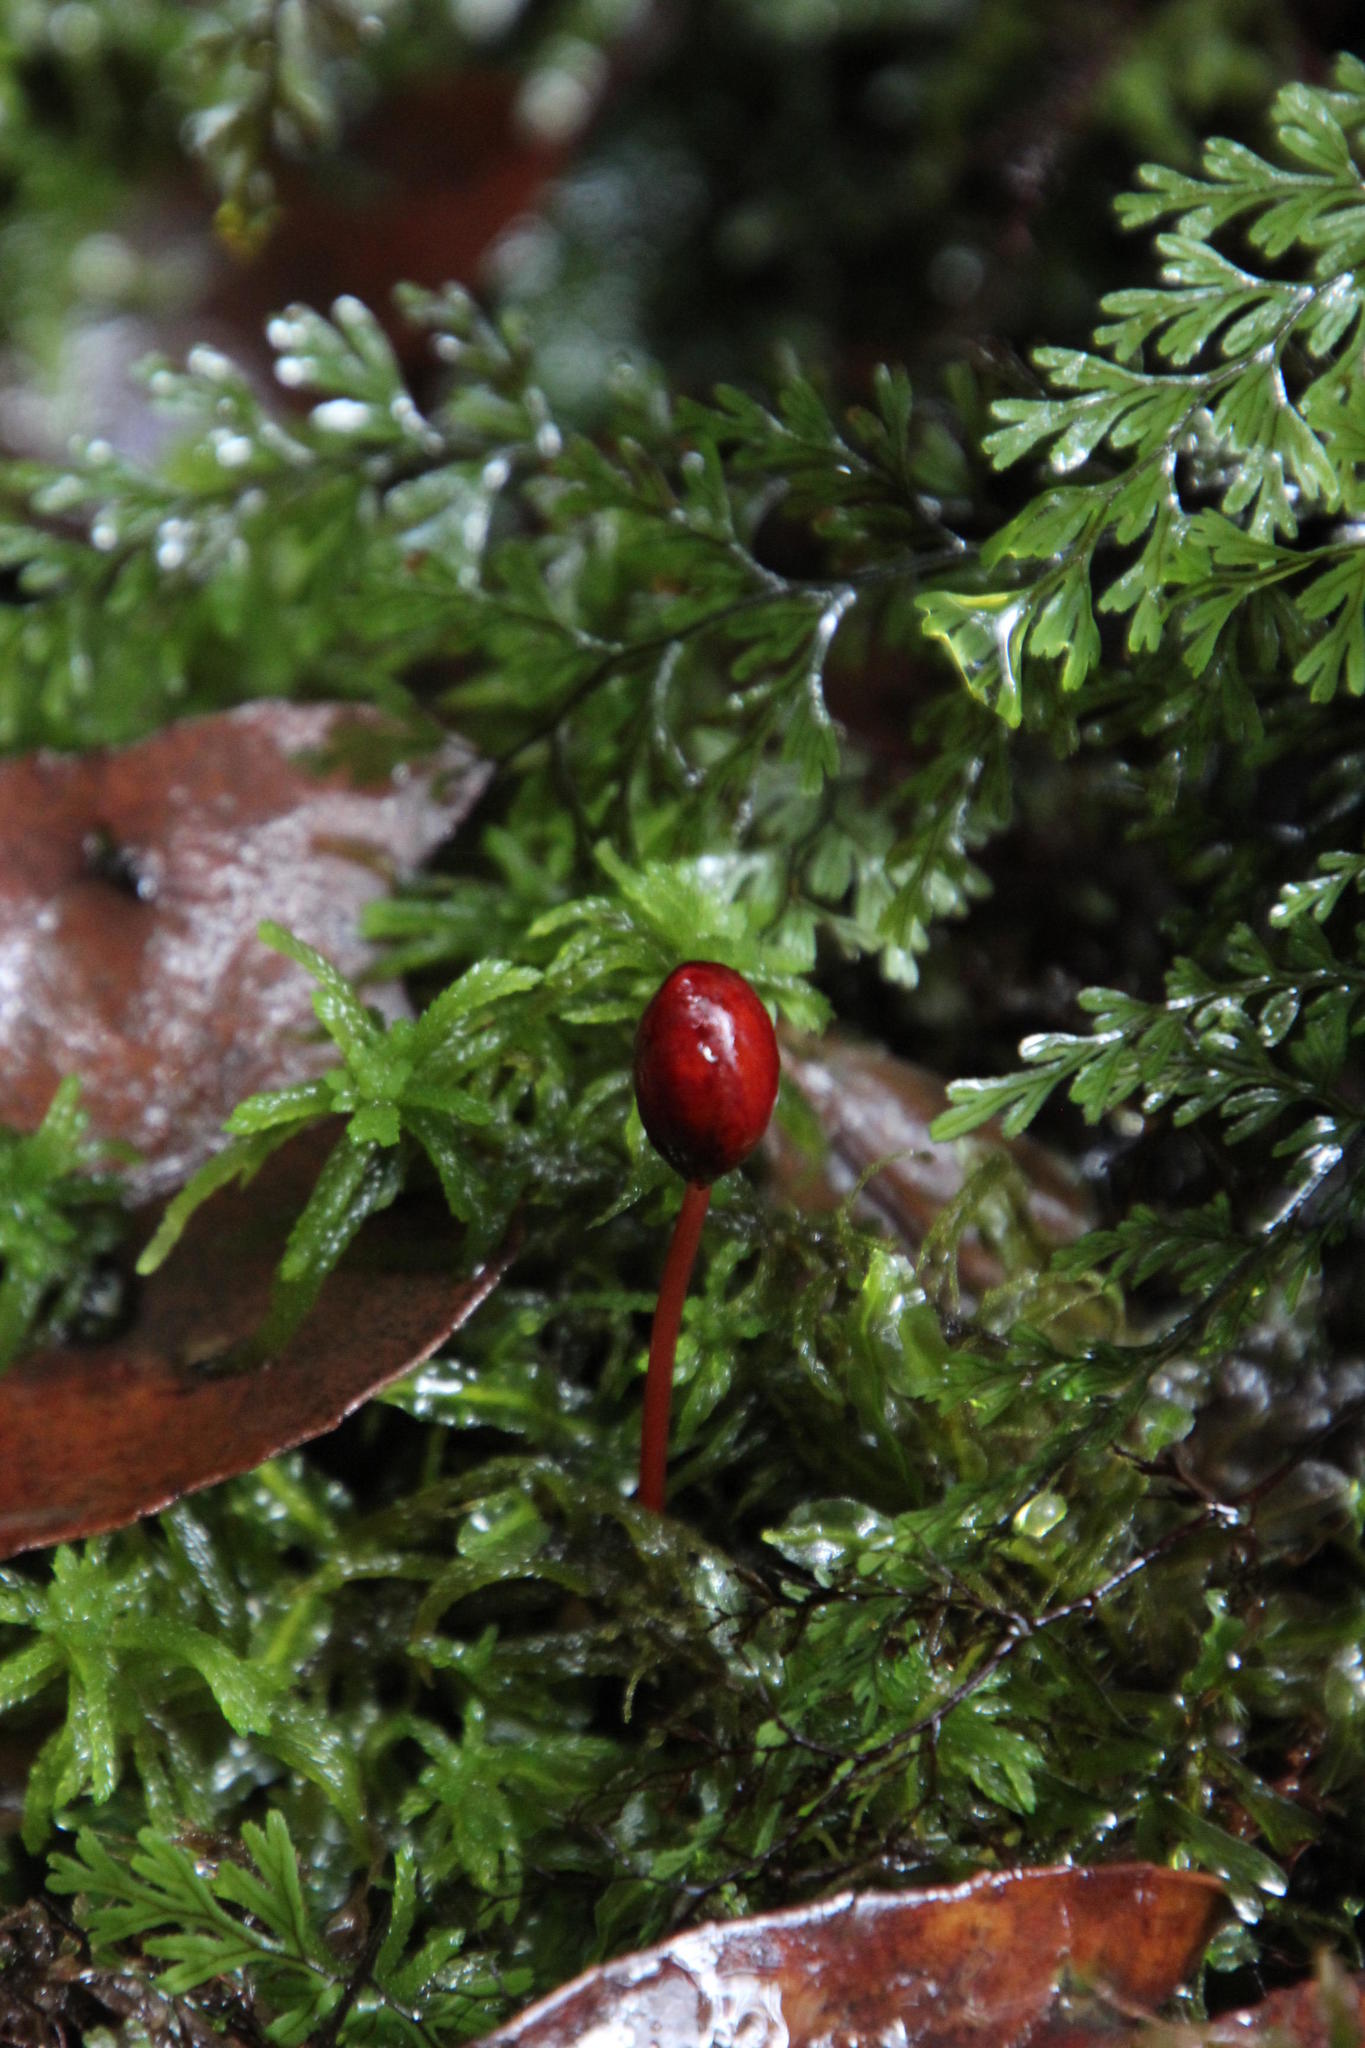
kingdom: Plantae
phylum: Bryophyta
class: Bryopsida
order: Hedwigiales
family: Hedwigiaceae
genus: Rhacocarpus
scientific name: Rhacocarpus purpurascens
